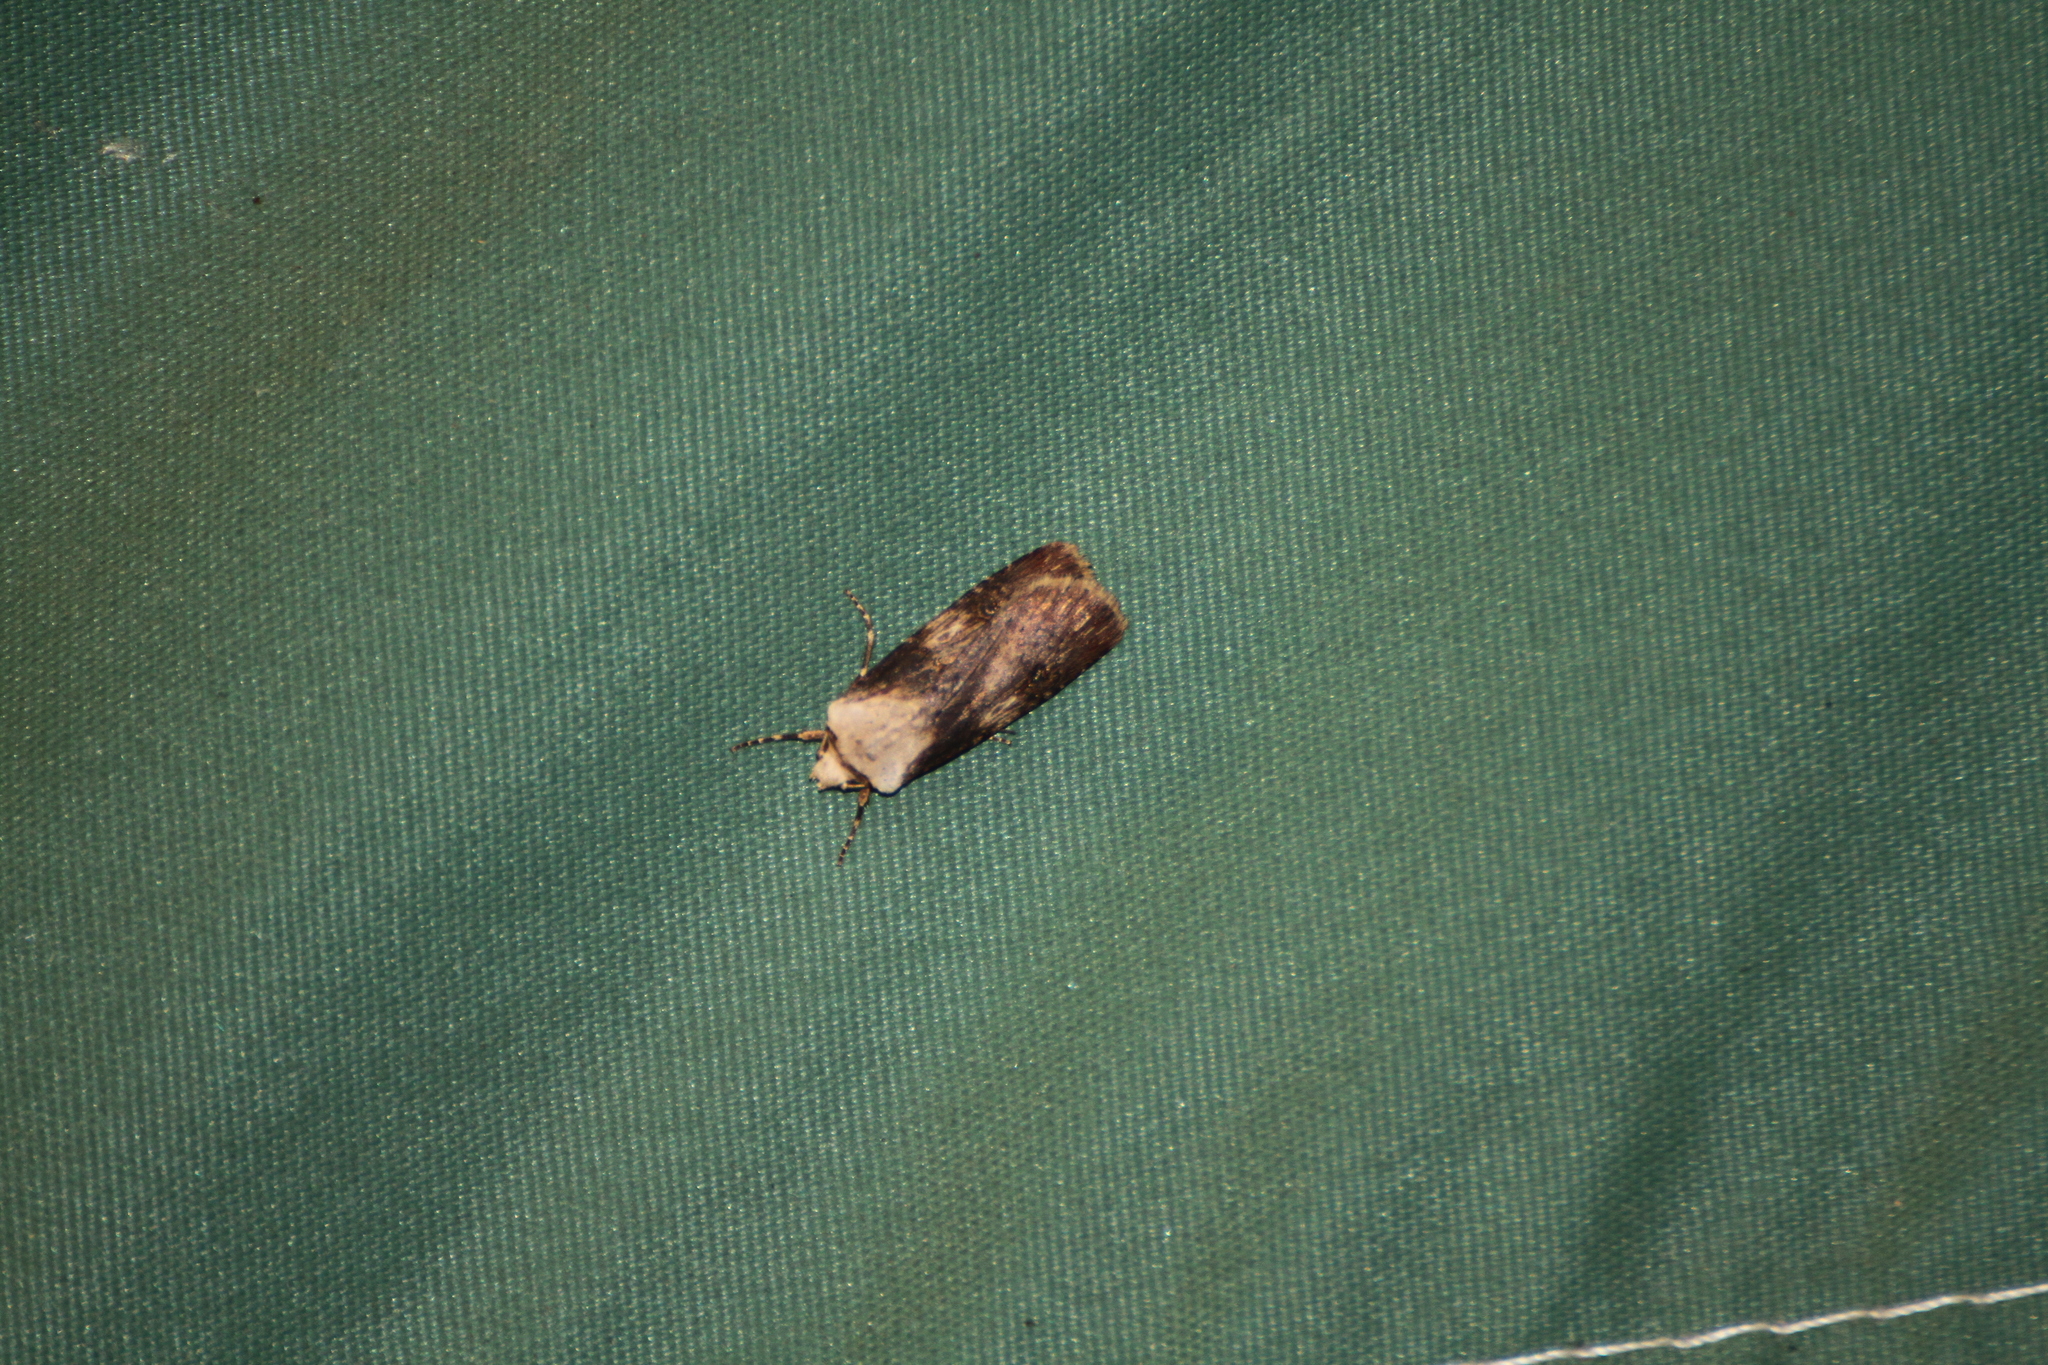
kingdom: Animalia
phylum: Arthropoda
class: Insecta
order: Lepidoptera
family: Noctuidae
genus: Agrotis
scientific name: Agrotis puta
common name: Shuttle-shaped dart
